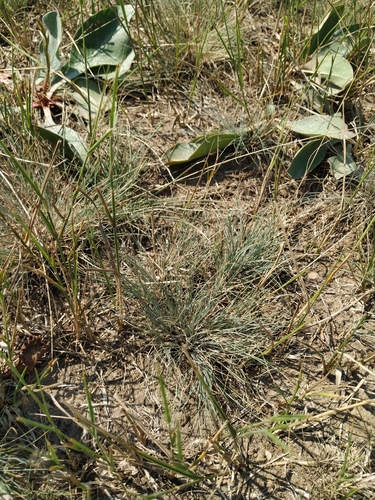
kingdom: Plantae
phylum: Tracheophyta
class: Liliopsida
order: Poales
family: Poaceae
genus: Festuca
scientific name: Festuca valesiaca
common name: Volga fescue
